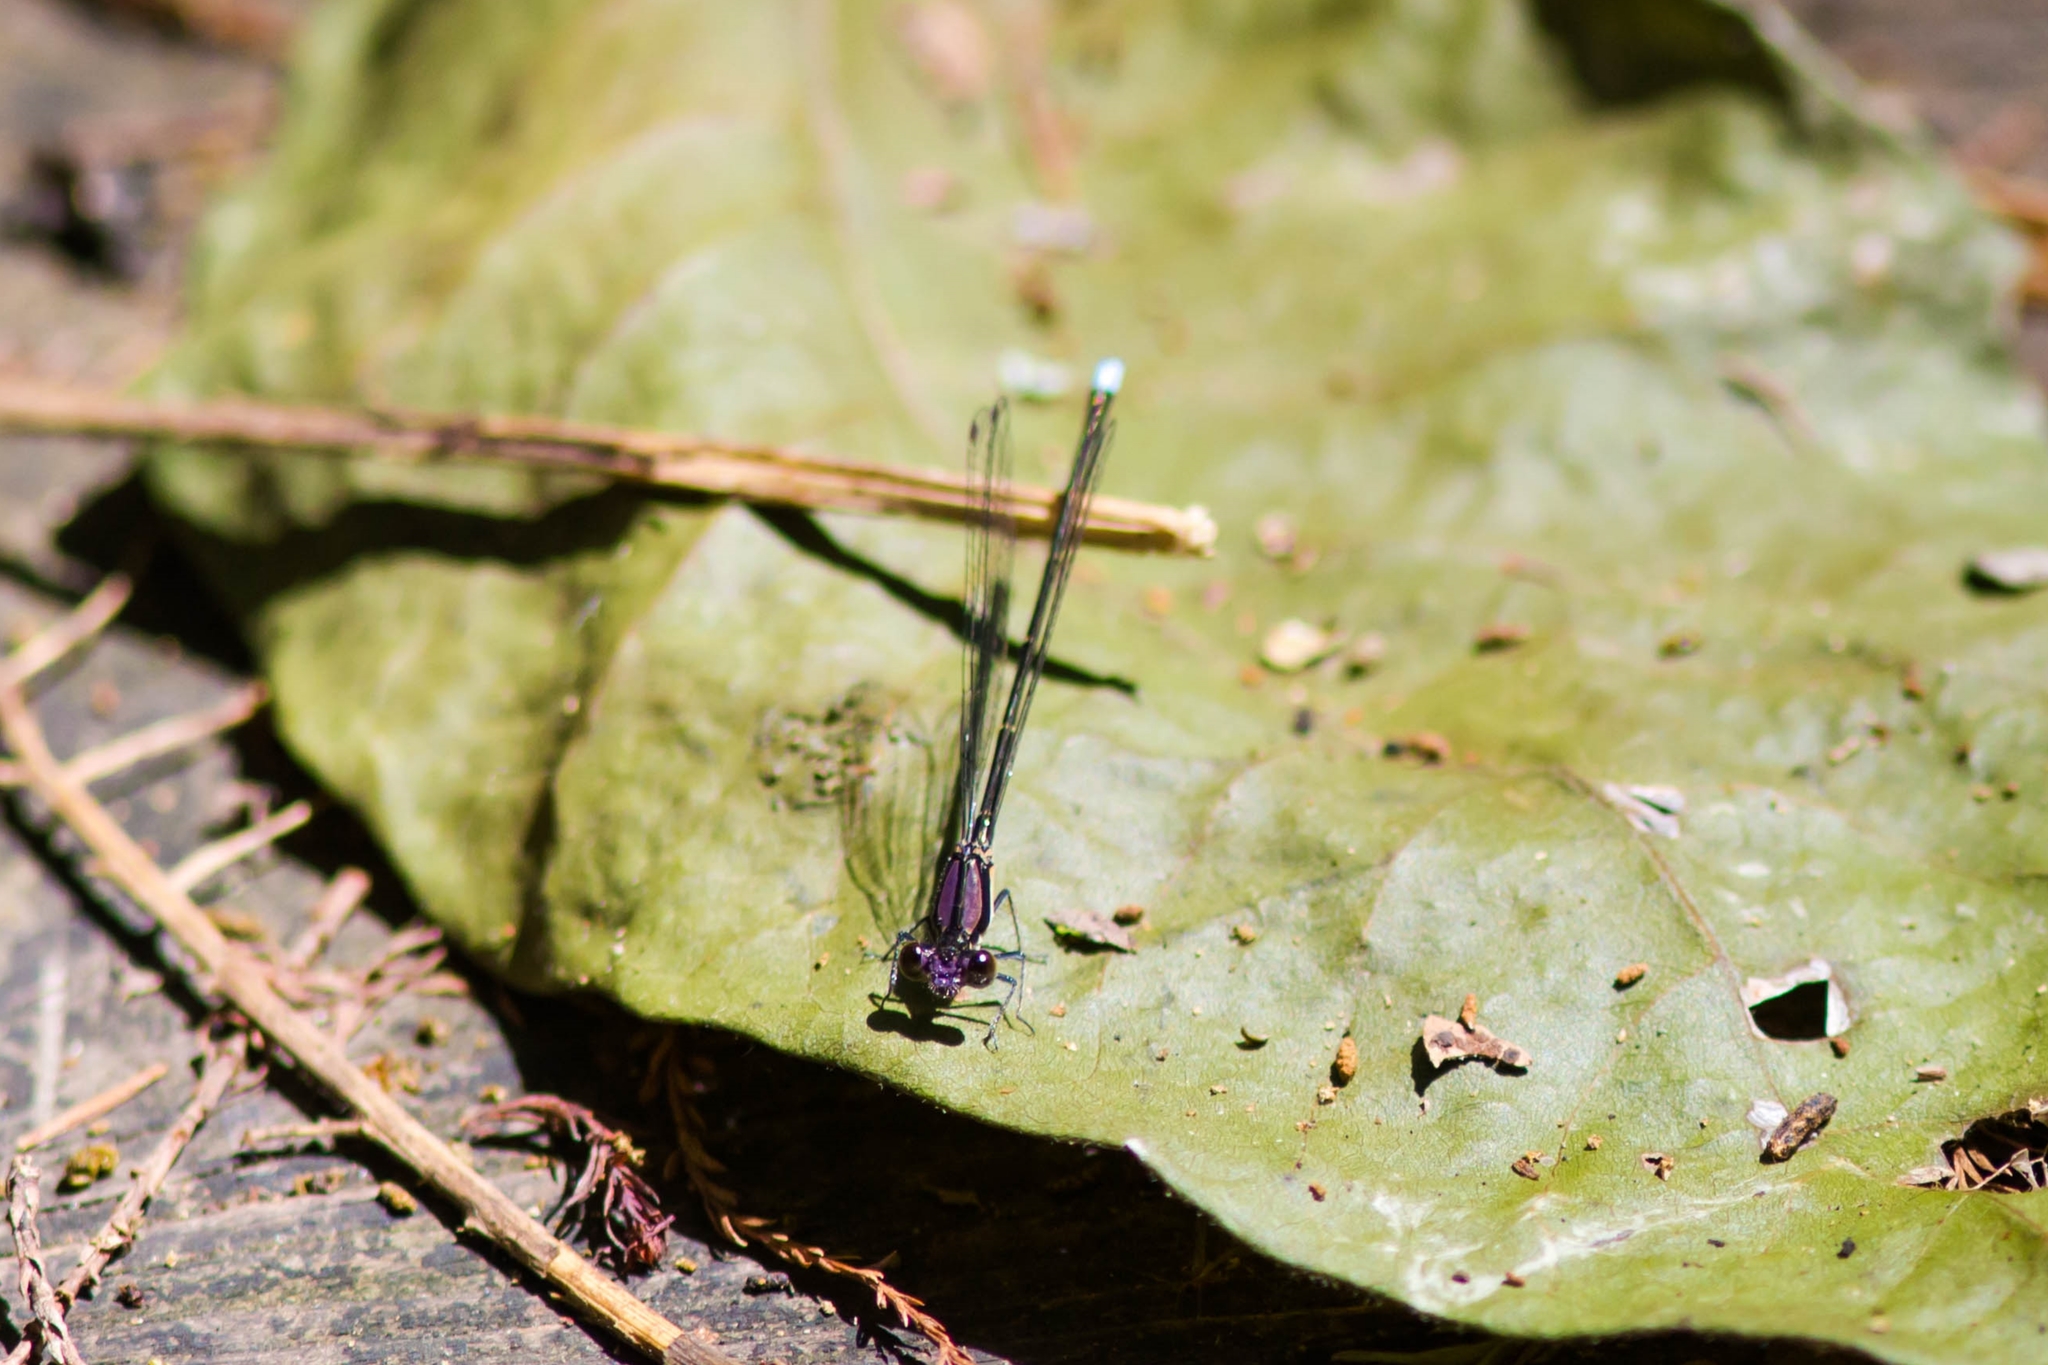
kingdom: Animalia
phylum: Arthropoda
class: Insecta
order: Odonata
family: Coenagrionidae
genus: Argia
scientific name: Argia tibialis
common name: Blue-tipped dancer
